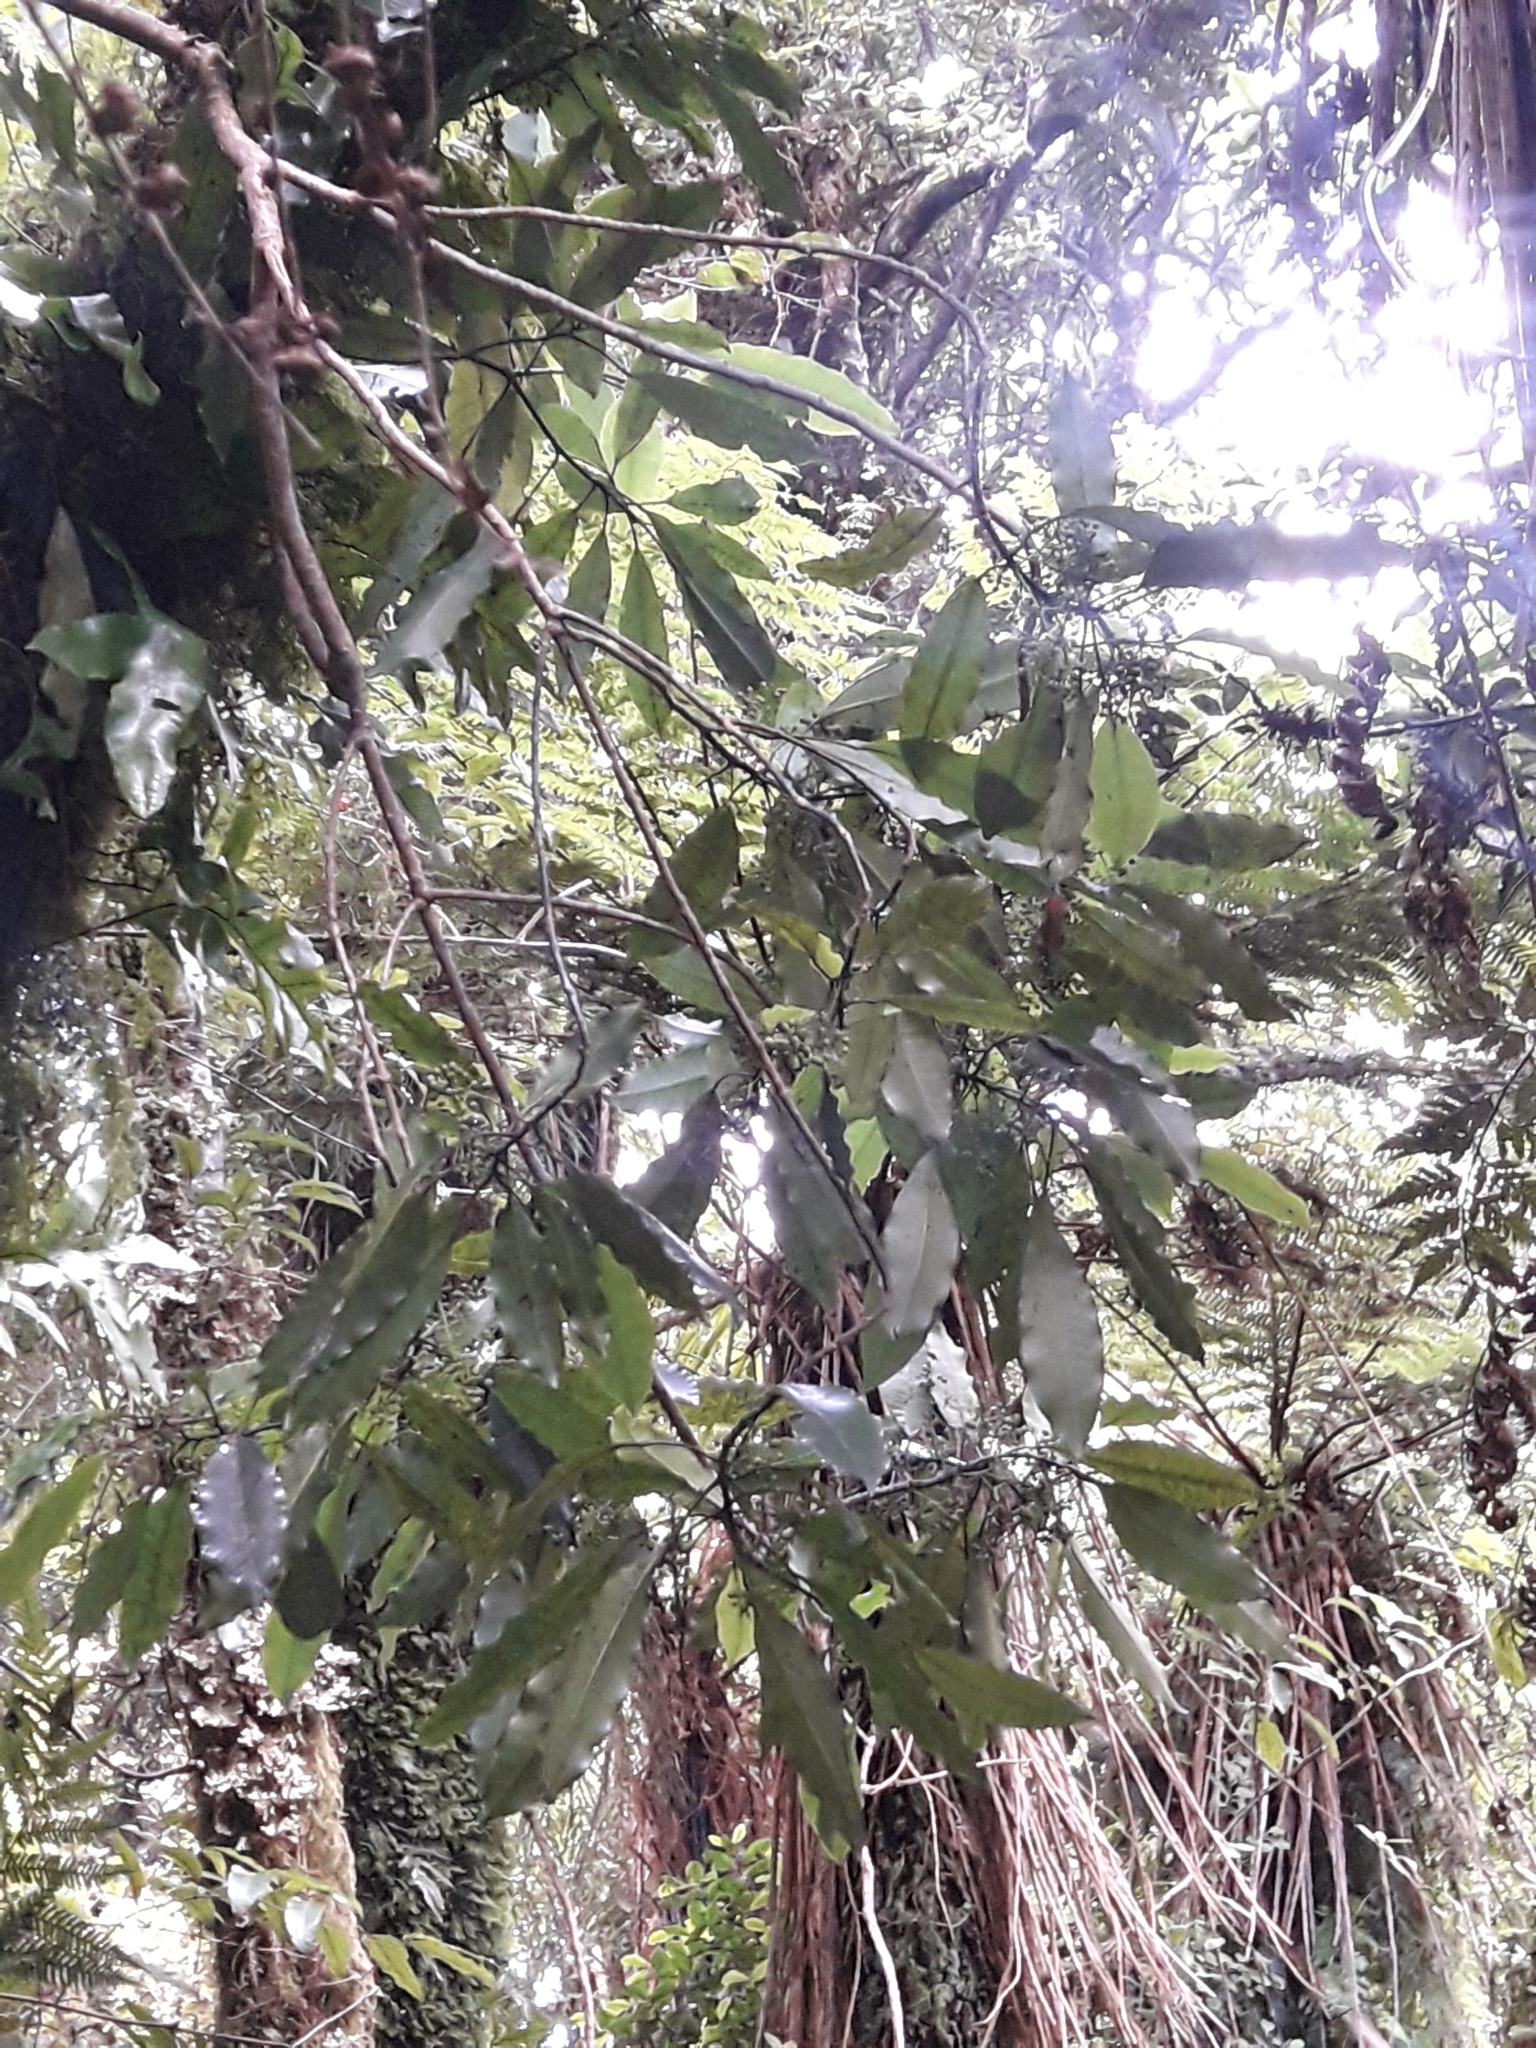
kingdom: Plantae
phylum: Tracheophyta
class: Magnoliopsida
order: Apiales
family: Araliaceae
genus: Raukaua
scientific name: Raukaua edgerleyi
